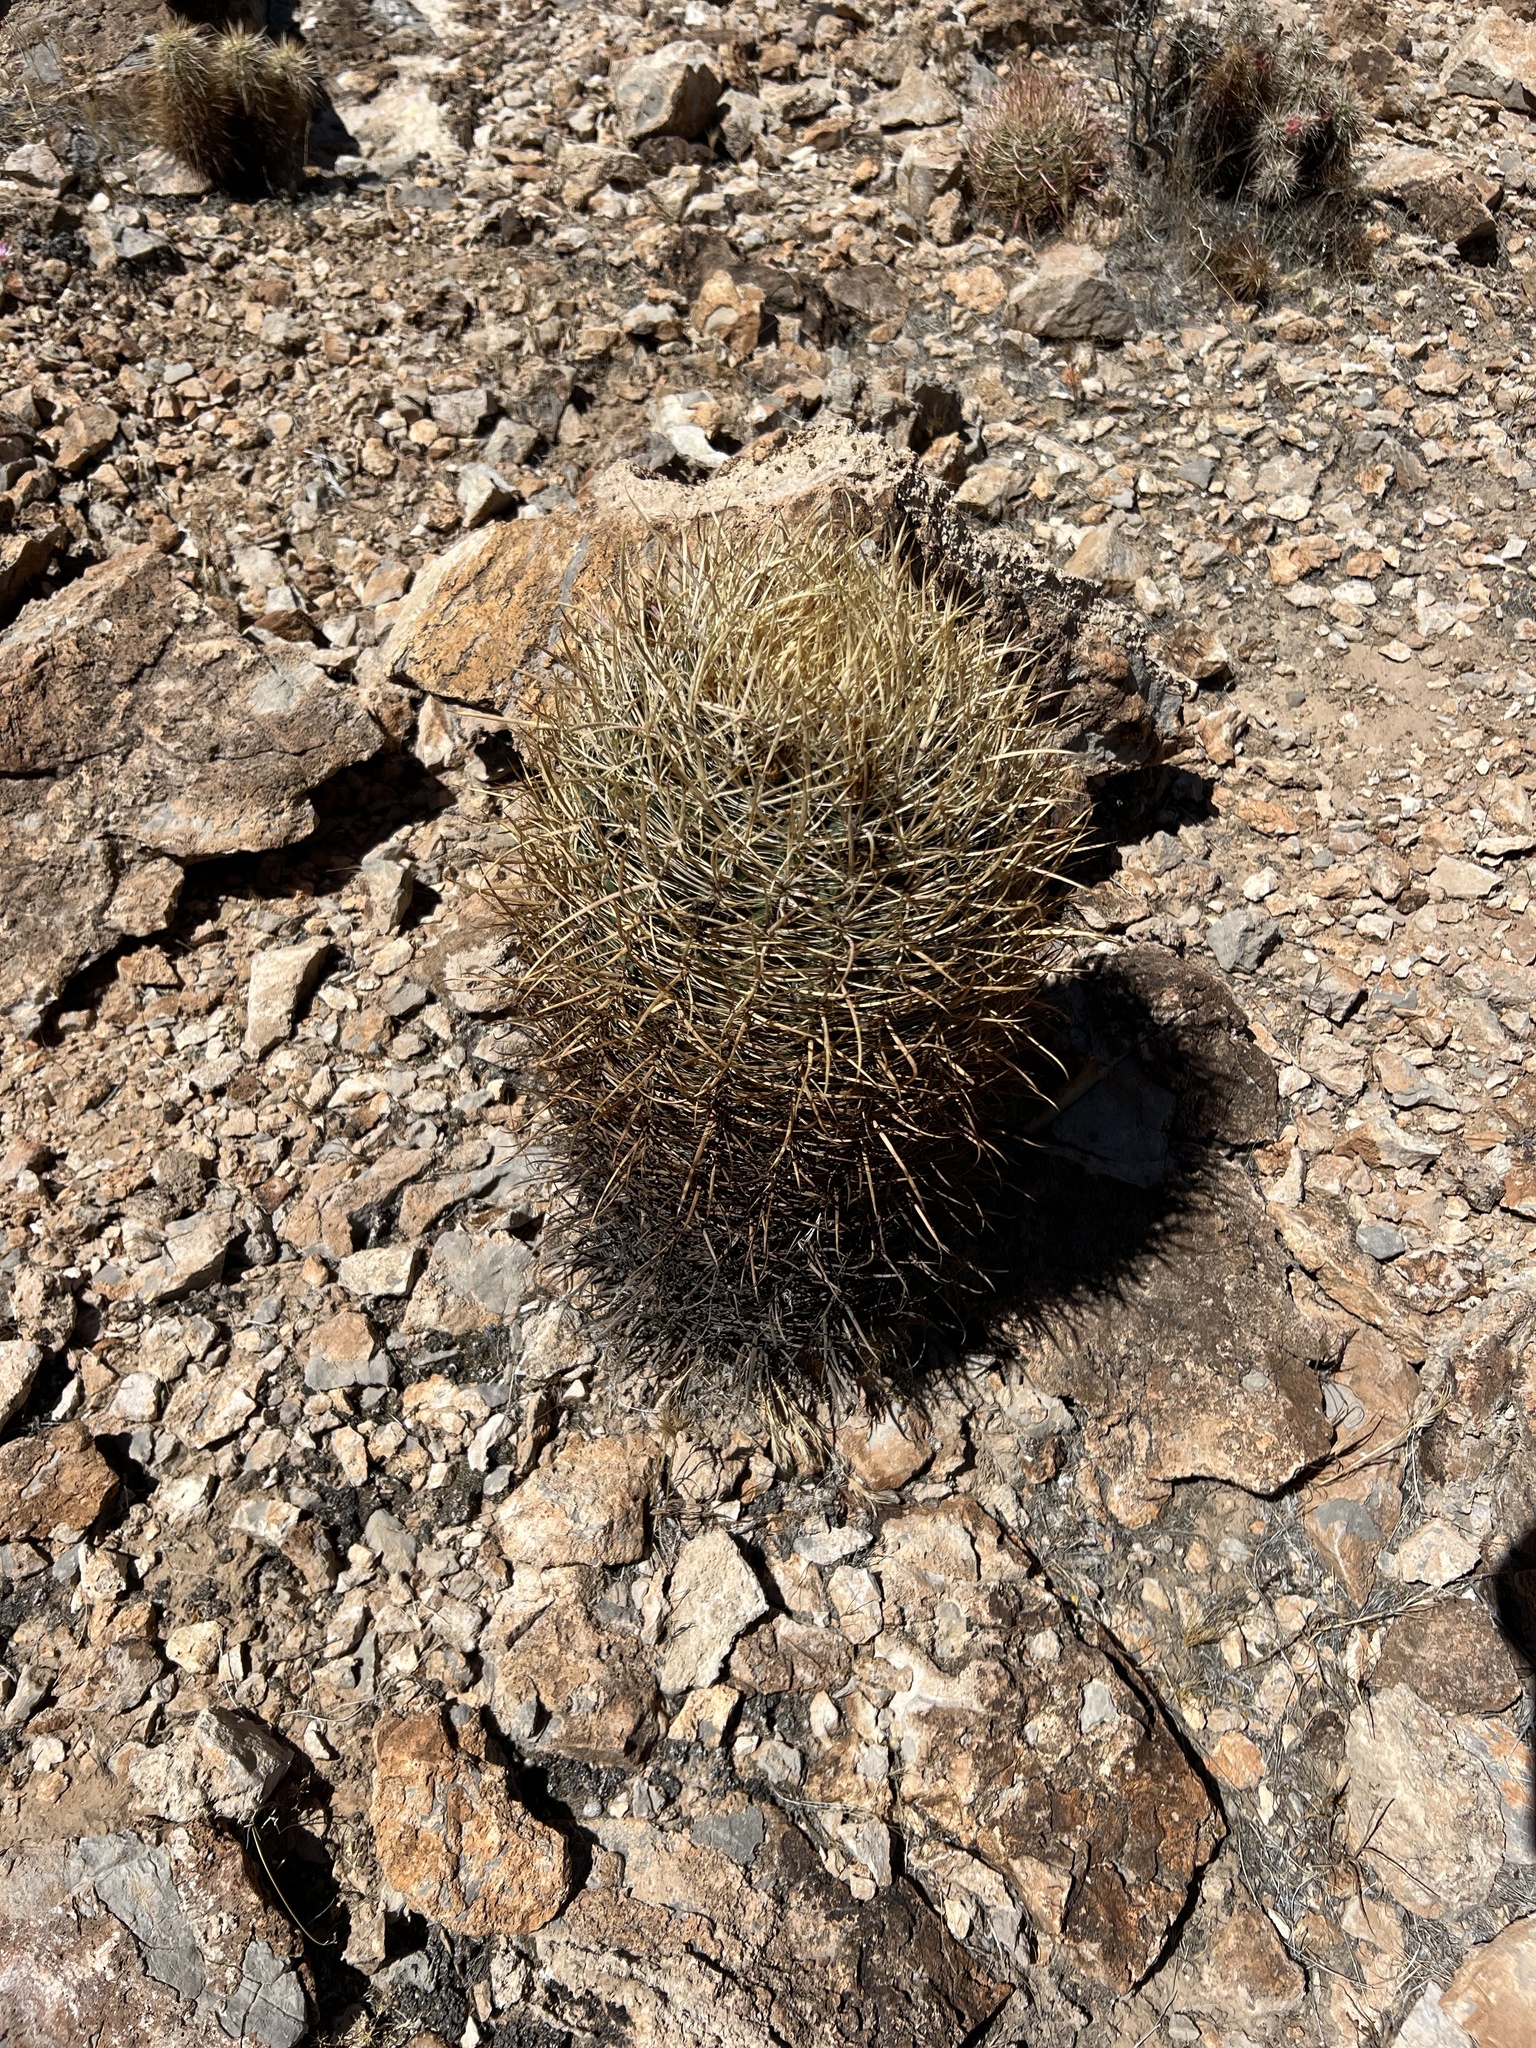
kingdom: Plantae
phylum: Tracheophyta
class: Magnoliopsida
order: Caryophyllales
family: Cactaceae
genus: Ferocactus
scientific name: Ferocactus cylindraceus
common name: California barrel cactus
